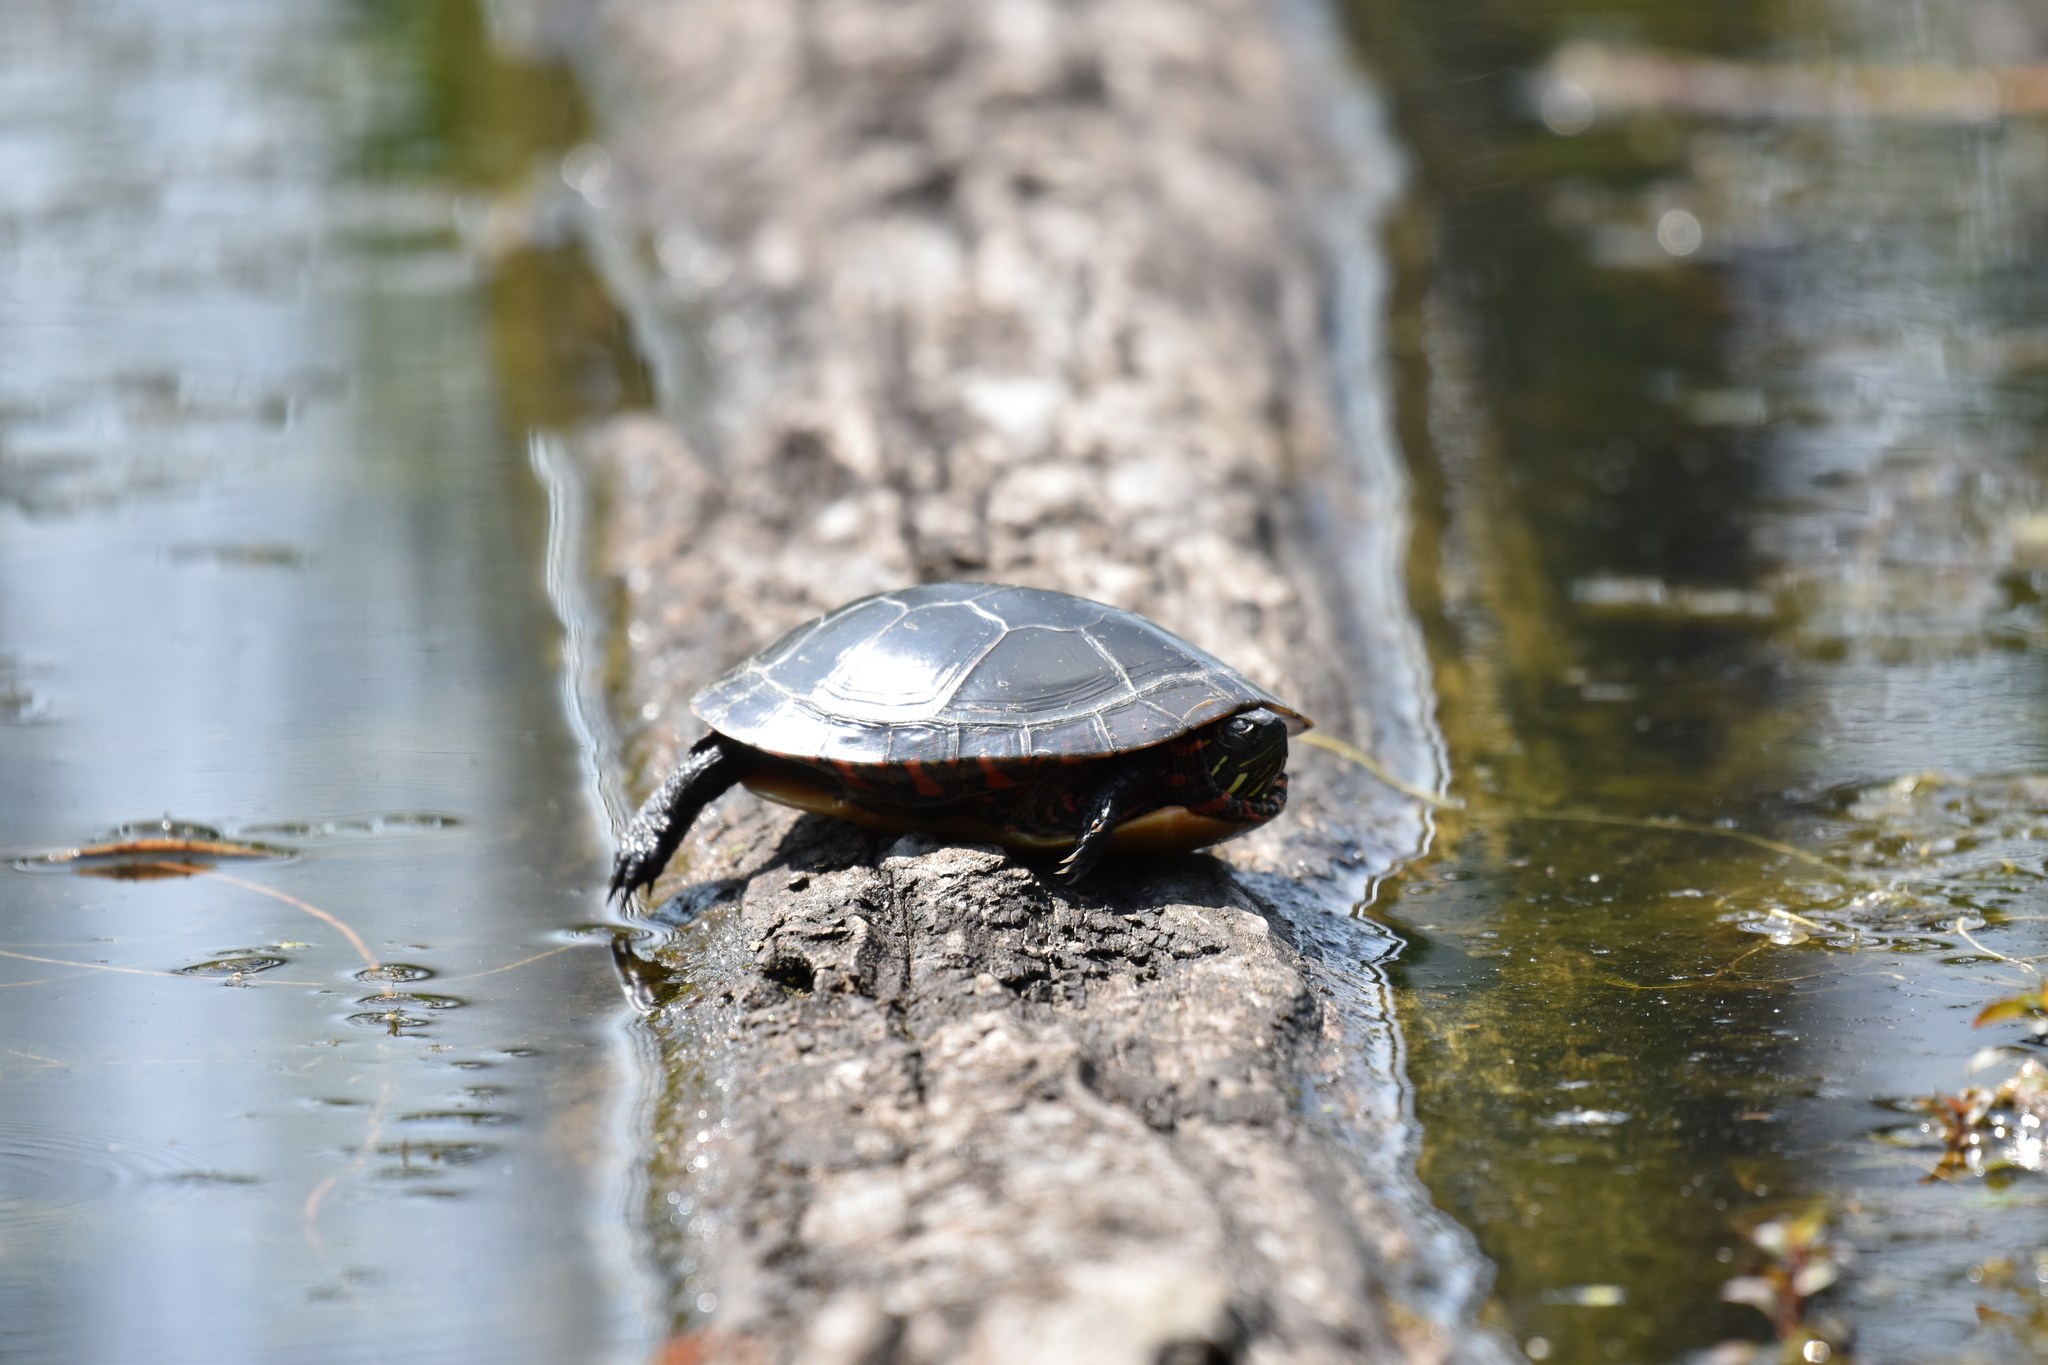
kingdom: Animalia
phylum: Chordata
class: Testudines
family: Emydidae
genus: Chrysemys
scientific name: Chrysemys picta
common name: Painted turtle
